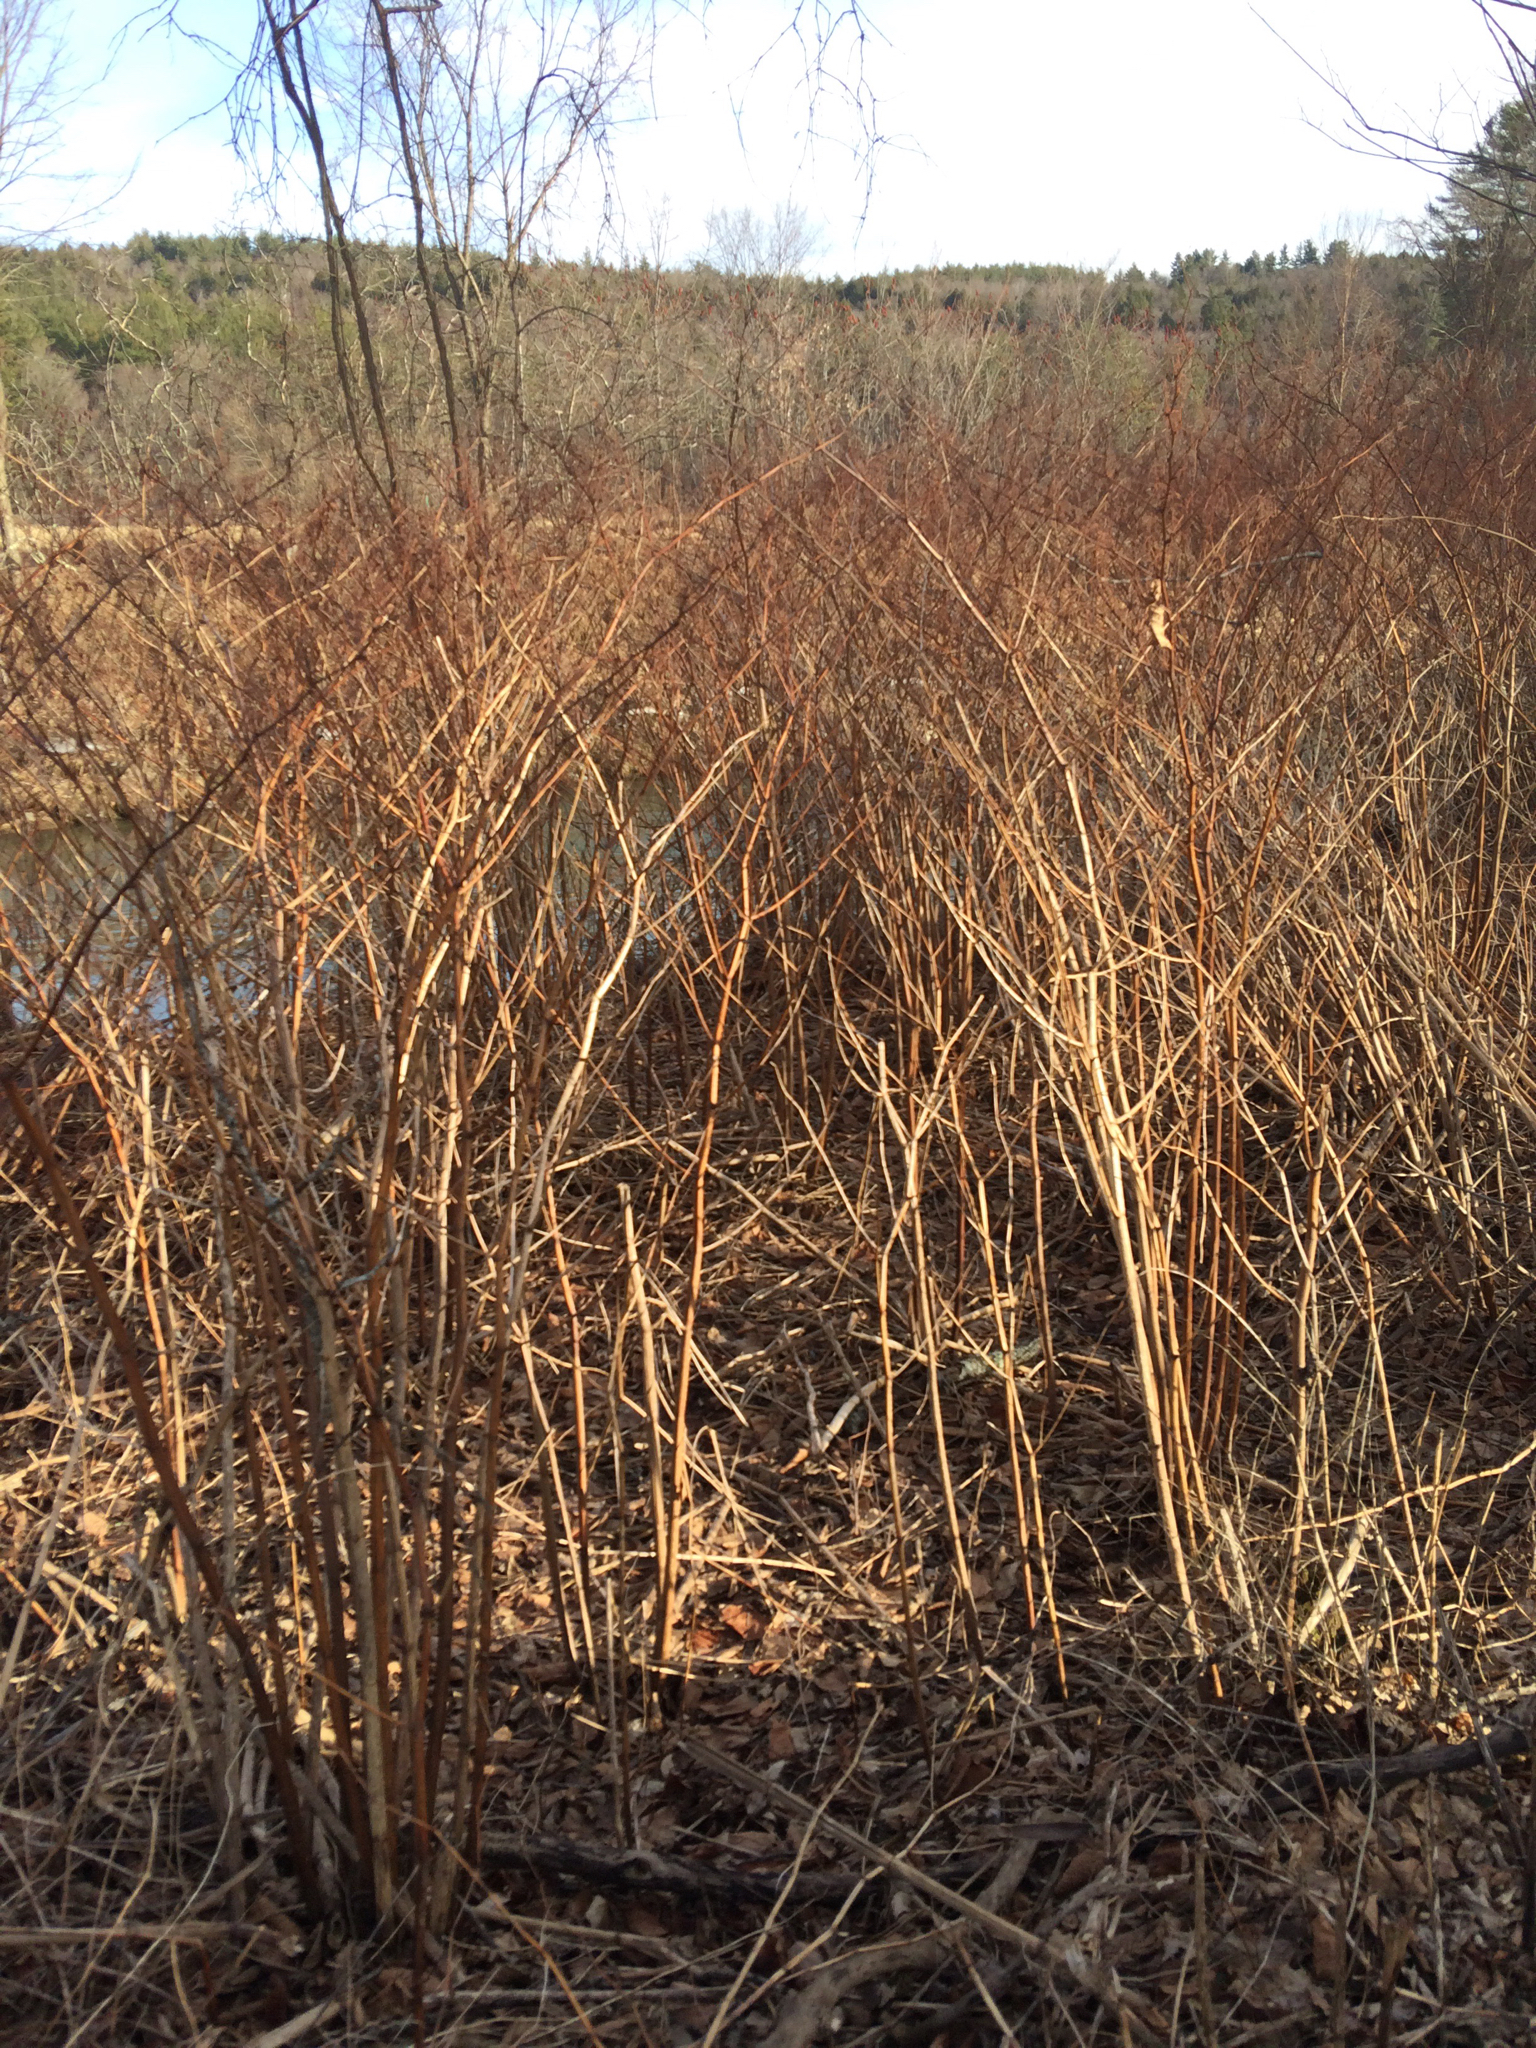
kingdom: Plantae
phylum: Tracheophyta
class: Magnoliopsida
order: Caryophyllales
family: Polygonaceae
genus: Reynoutria
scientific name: Reynoutria japonica
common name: Japanese knotweed
